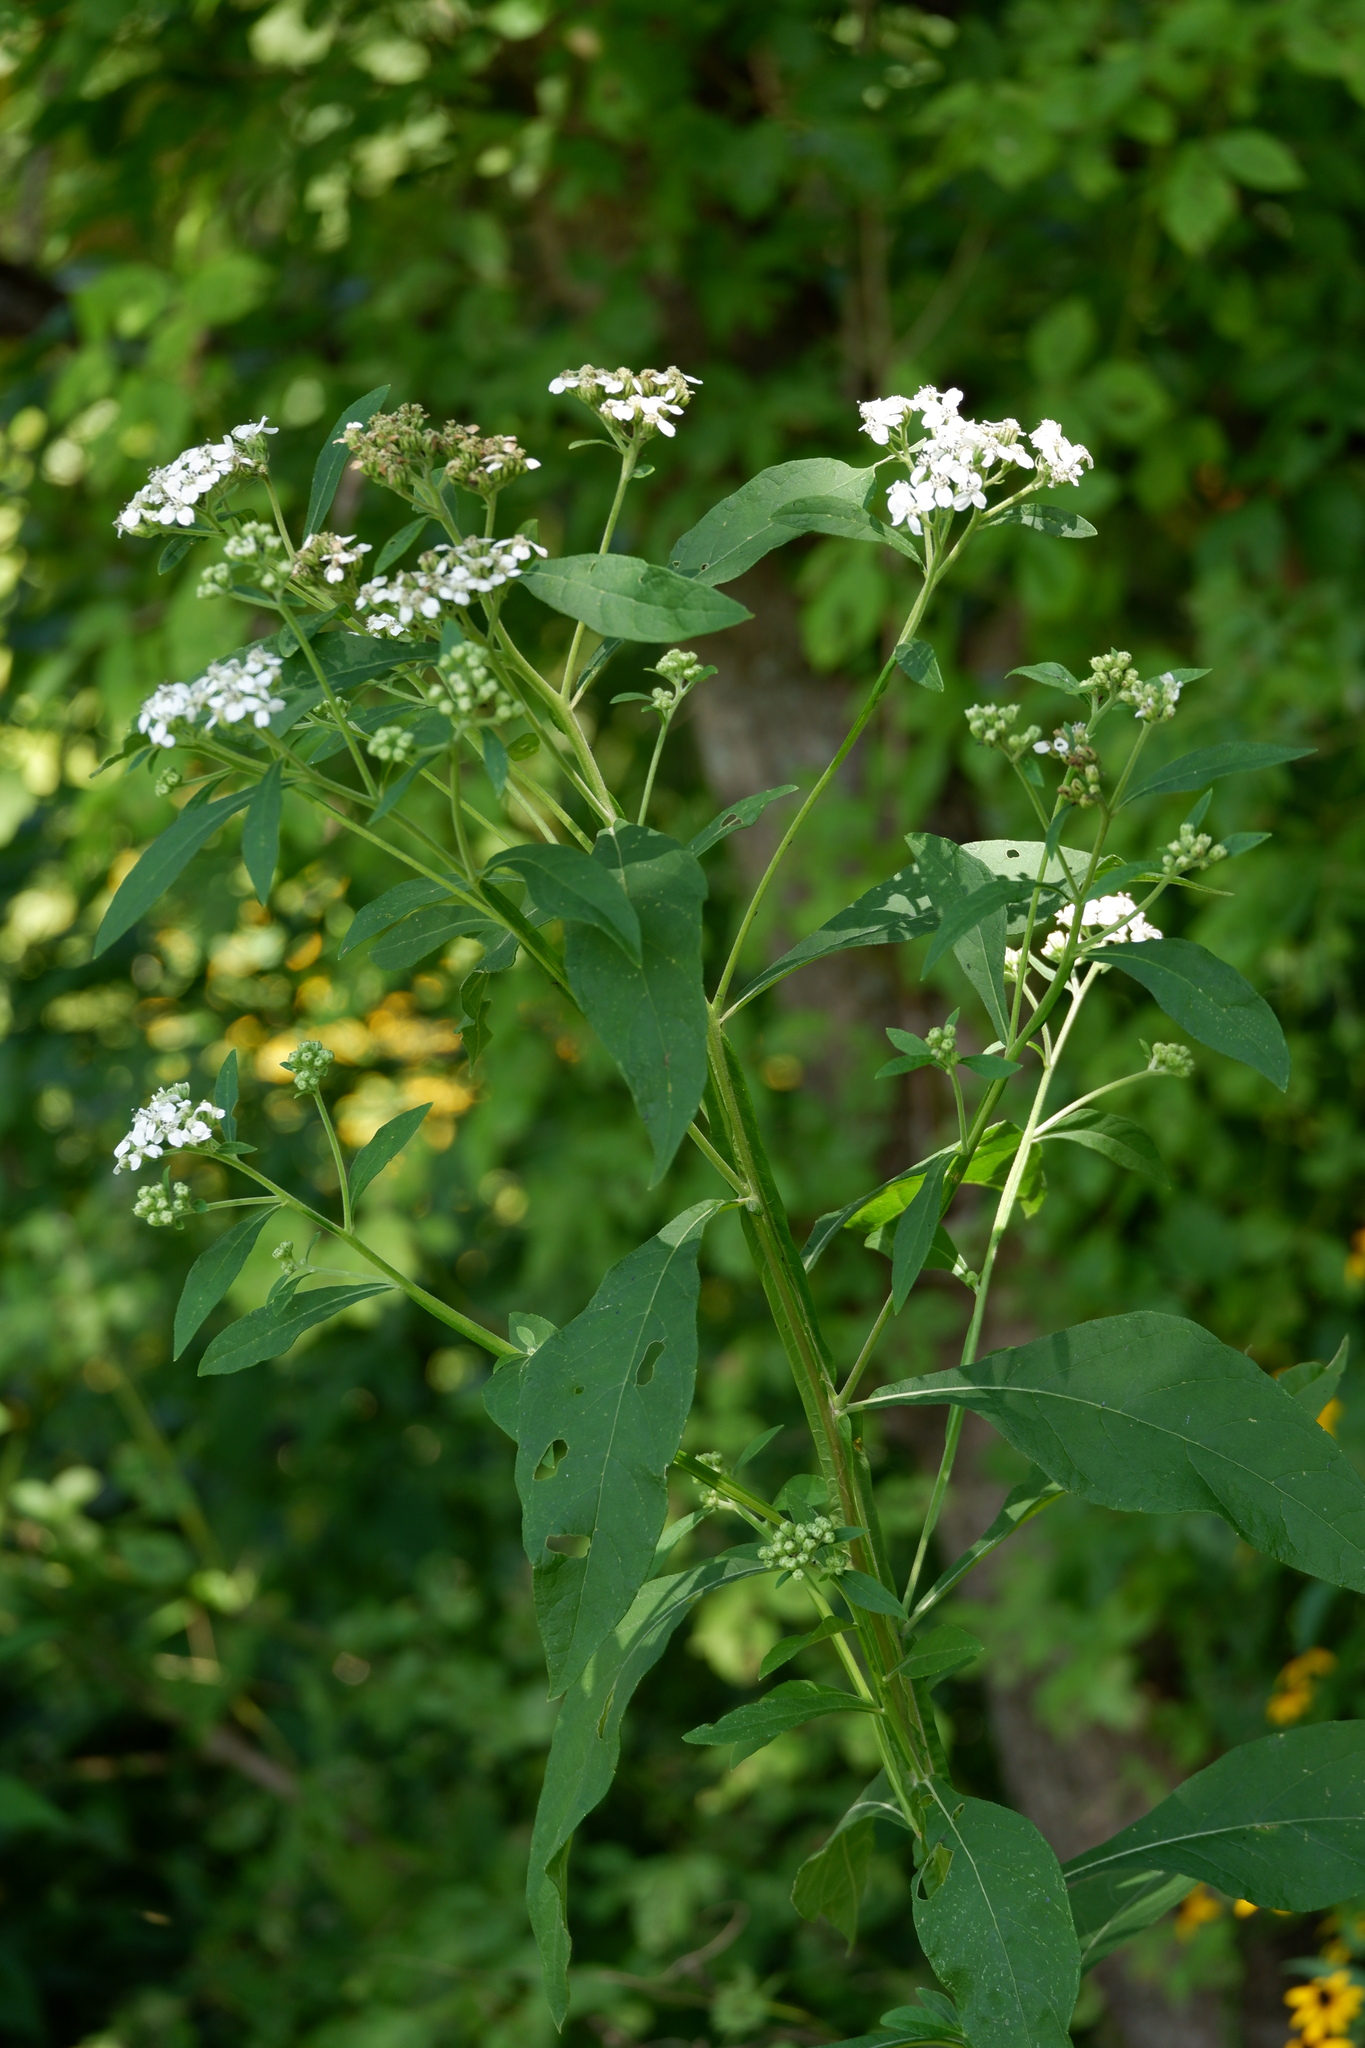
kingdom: Plantae
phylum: Tracheophyta
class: Magnoliopsida
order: Asterales
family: Asteraceae
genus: Verbesina
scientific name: Verbesina virginica
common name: Frostweed
